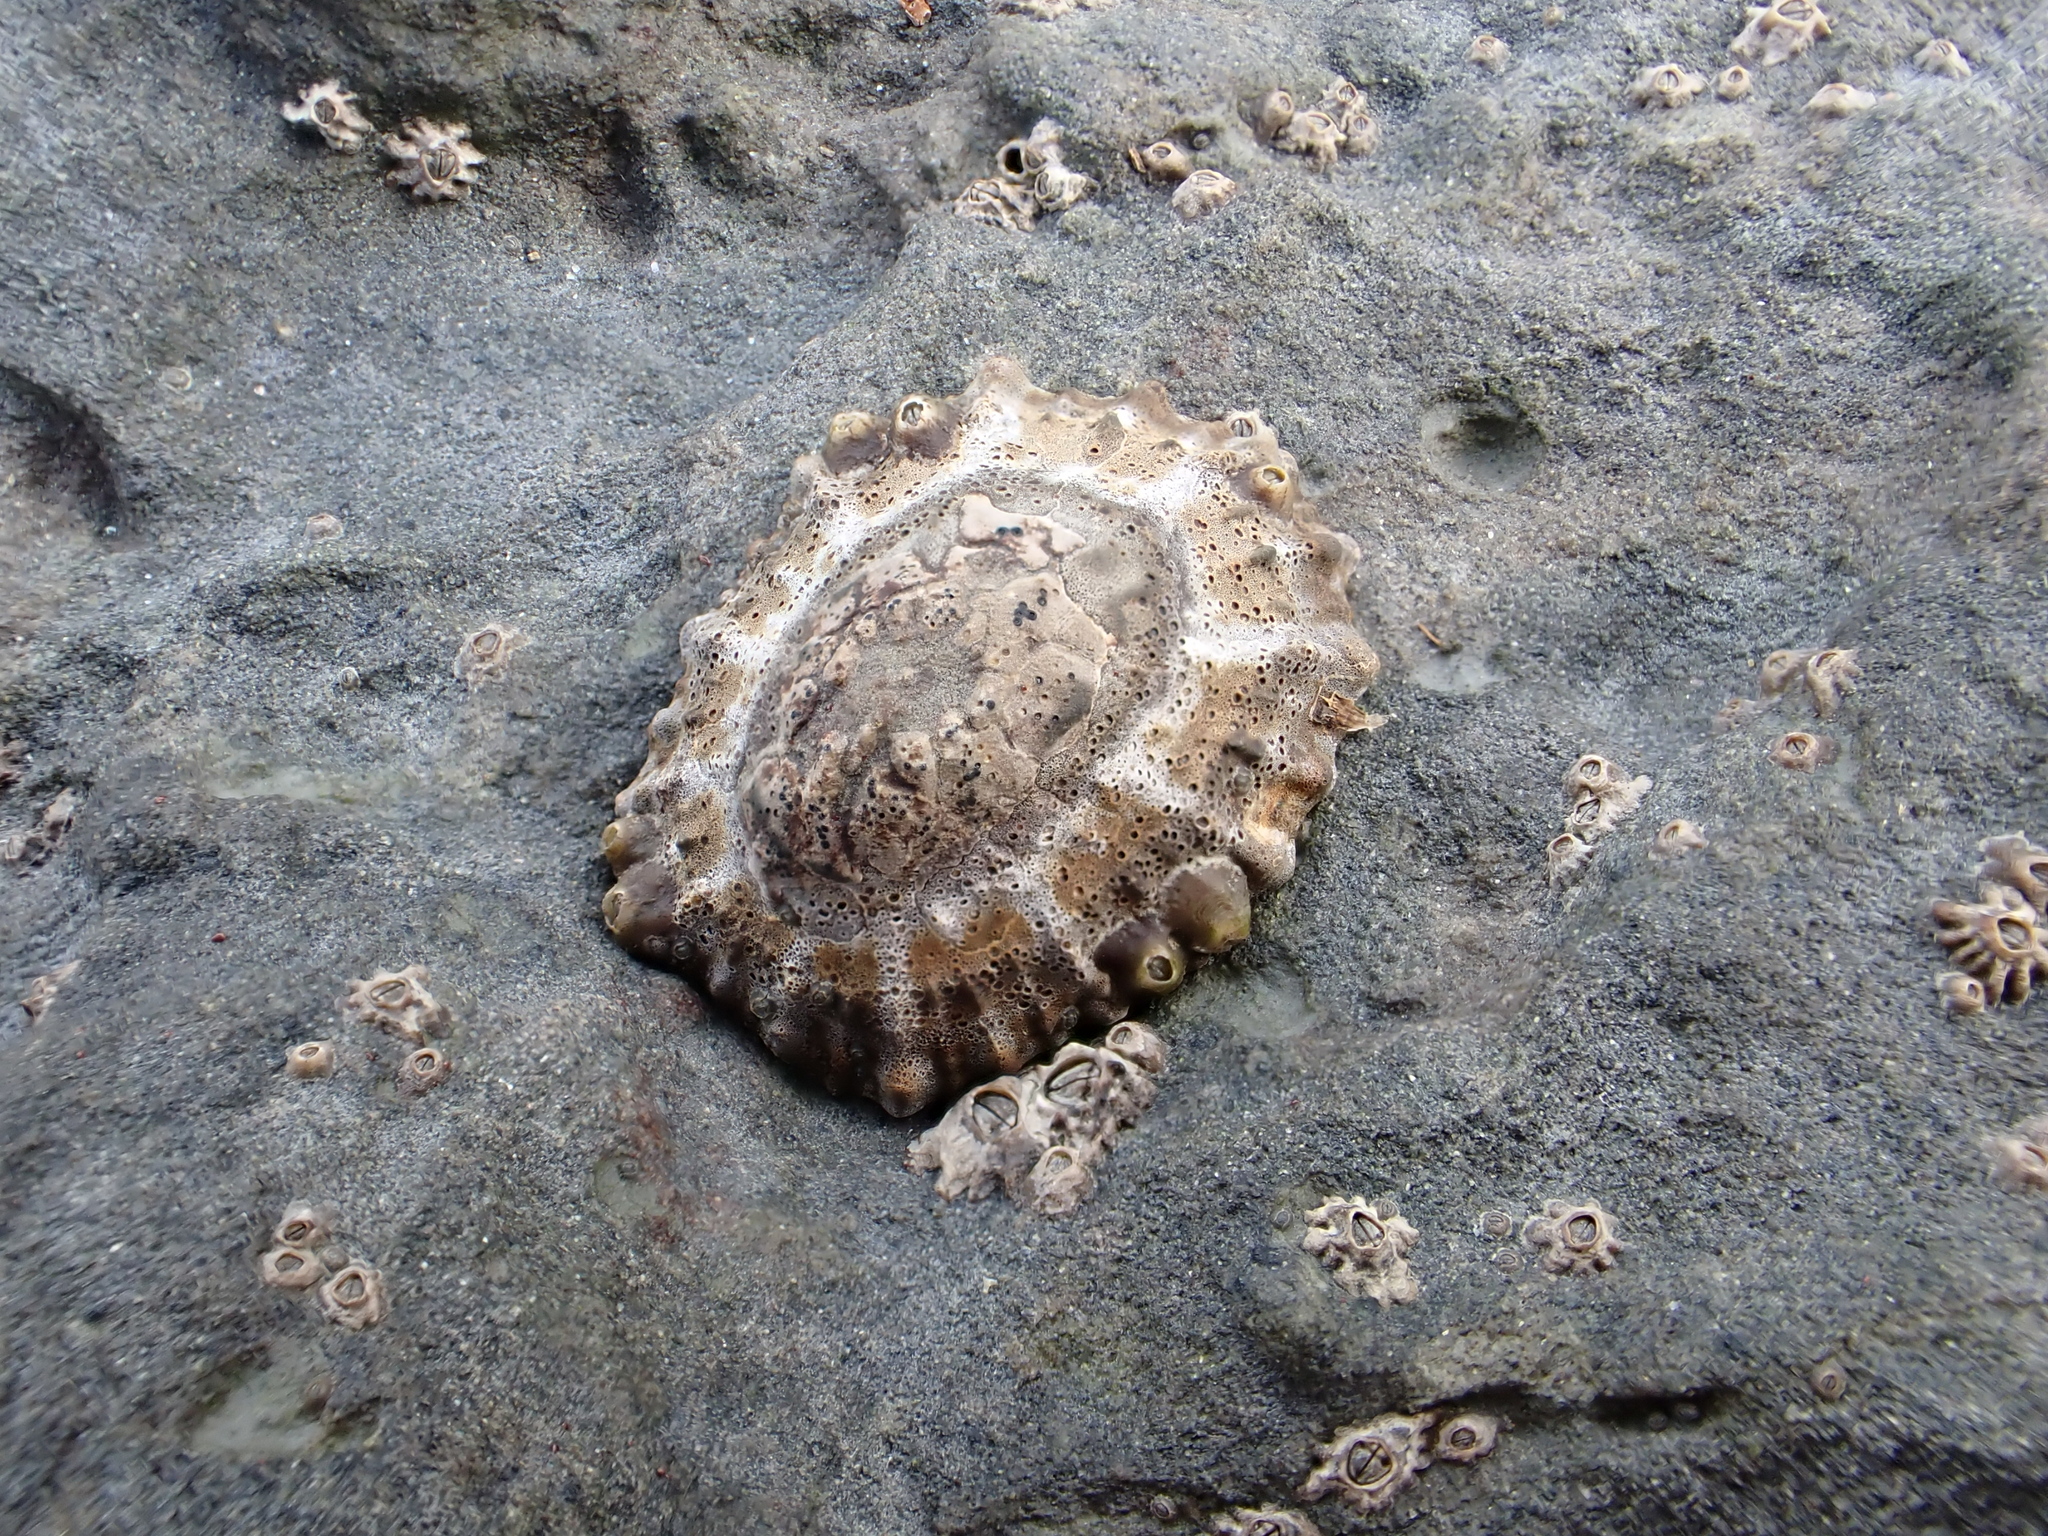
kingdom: Animalia
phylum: Mollusca
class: Gastropoda
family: Nacellidae
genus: Cellana
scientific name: Cellana ornata
